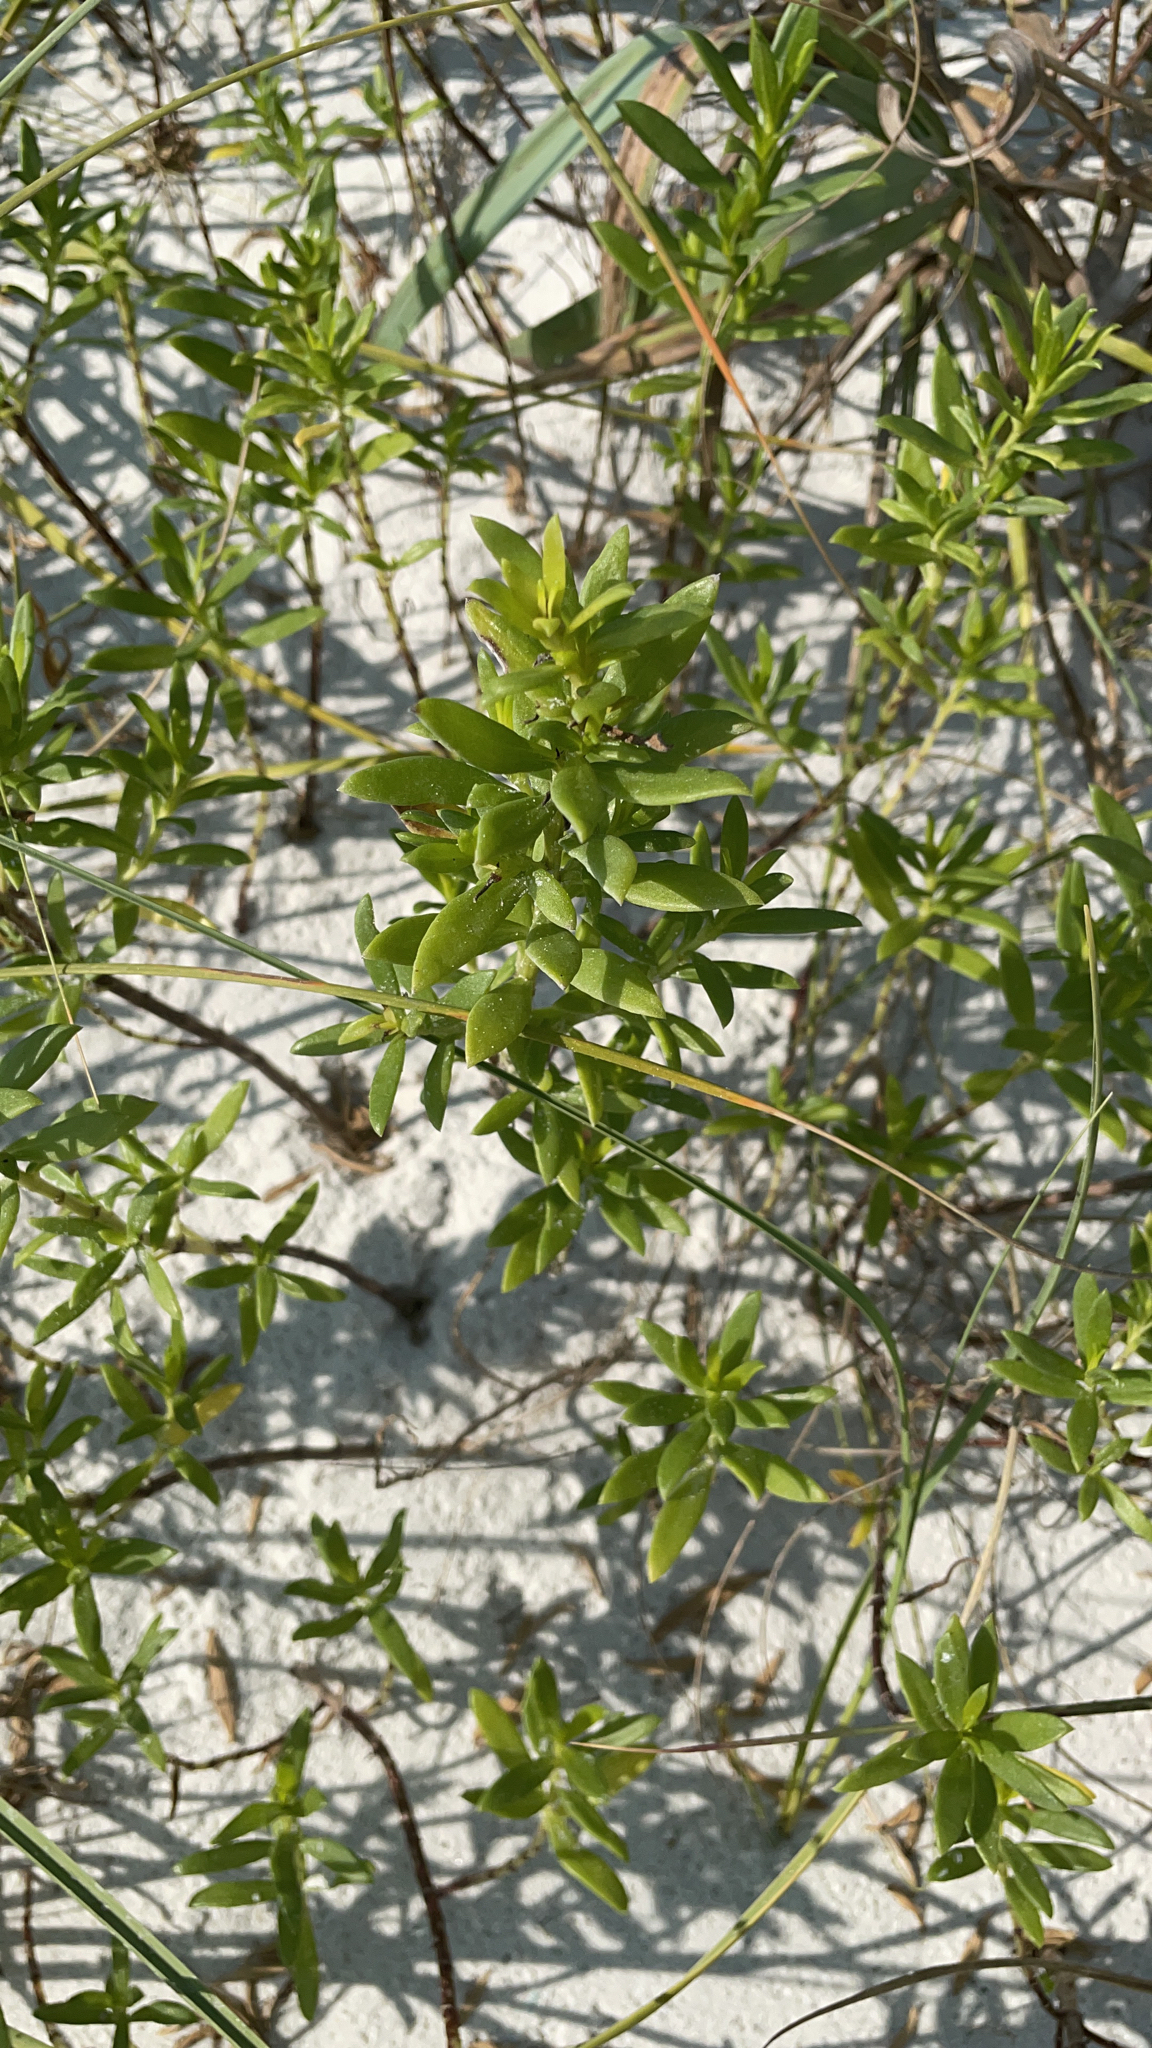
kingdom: Plantae
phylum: Tracheophyta
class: Magnoliopsida
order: Asterales
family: Asteraceae
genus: Iva
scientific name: Iva imbricata
